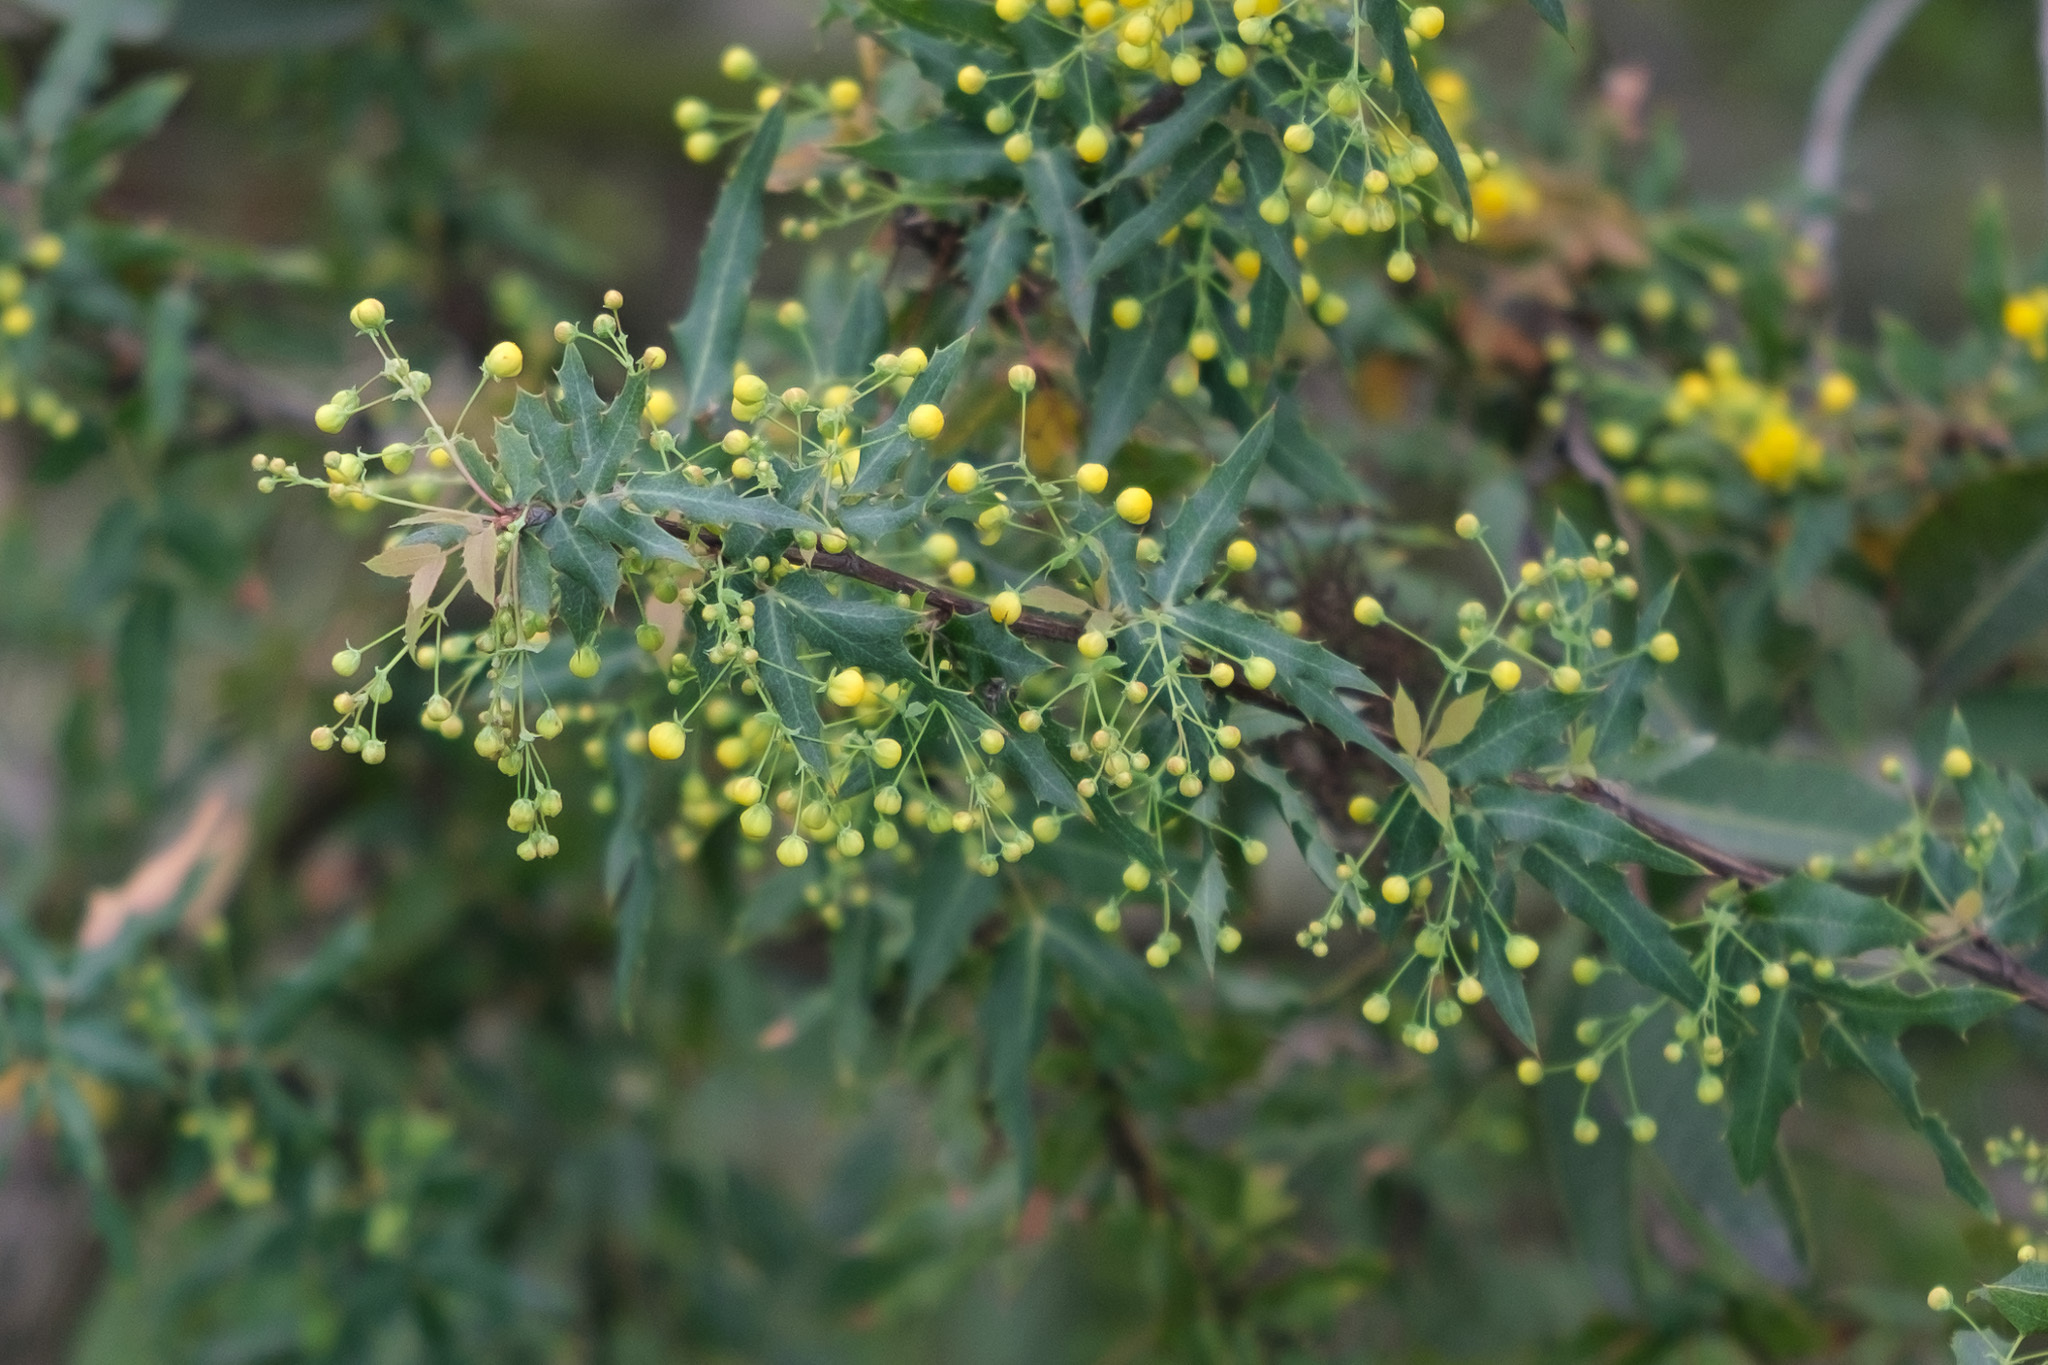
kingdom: Plantae
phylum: Tracheophyta
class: Magnoliopsida
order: Ranunculales
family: Berberidaceae
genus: Alloberberis
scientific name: Alloberberis nevinii
